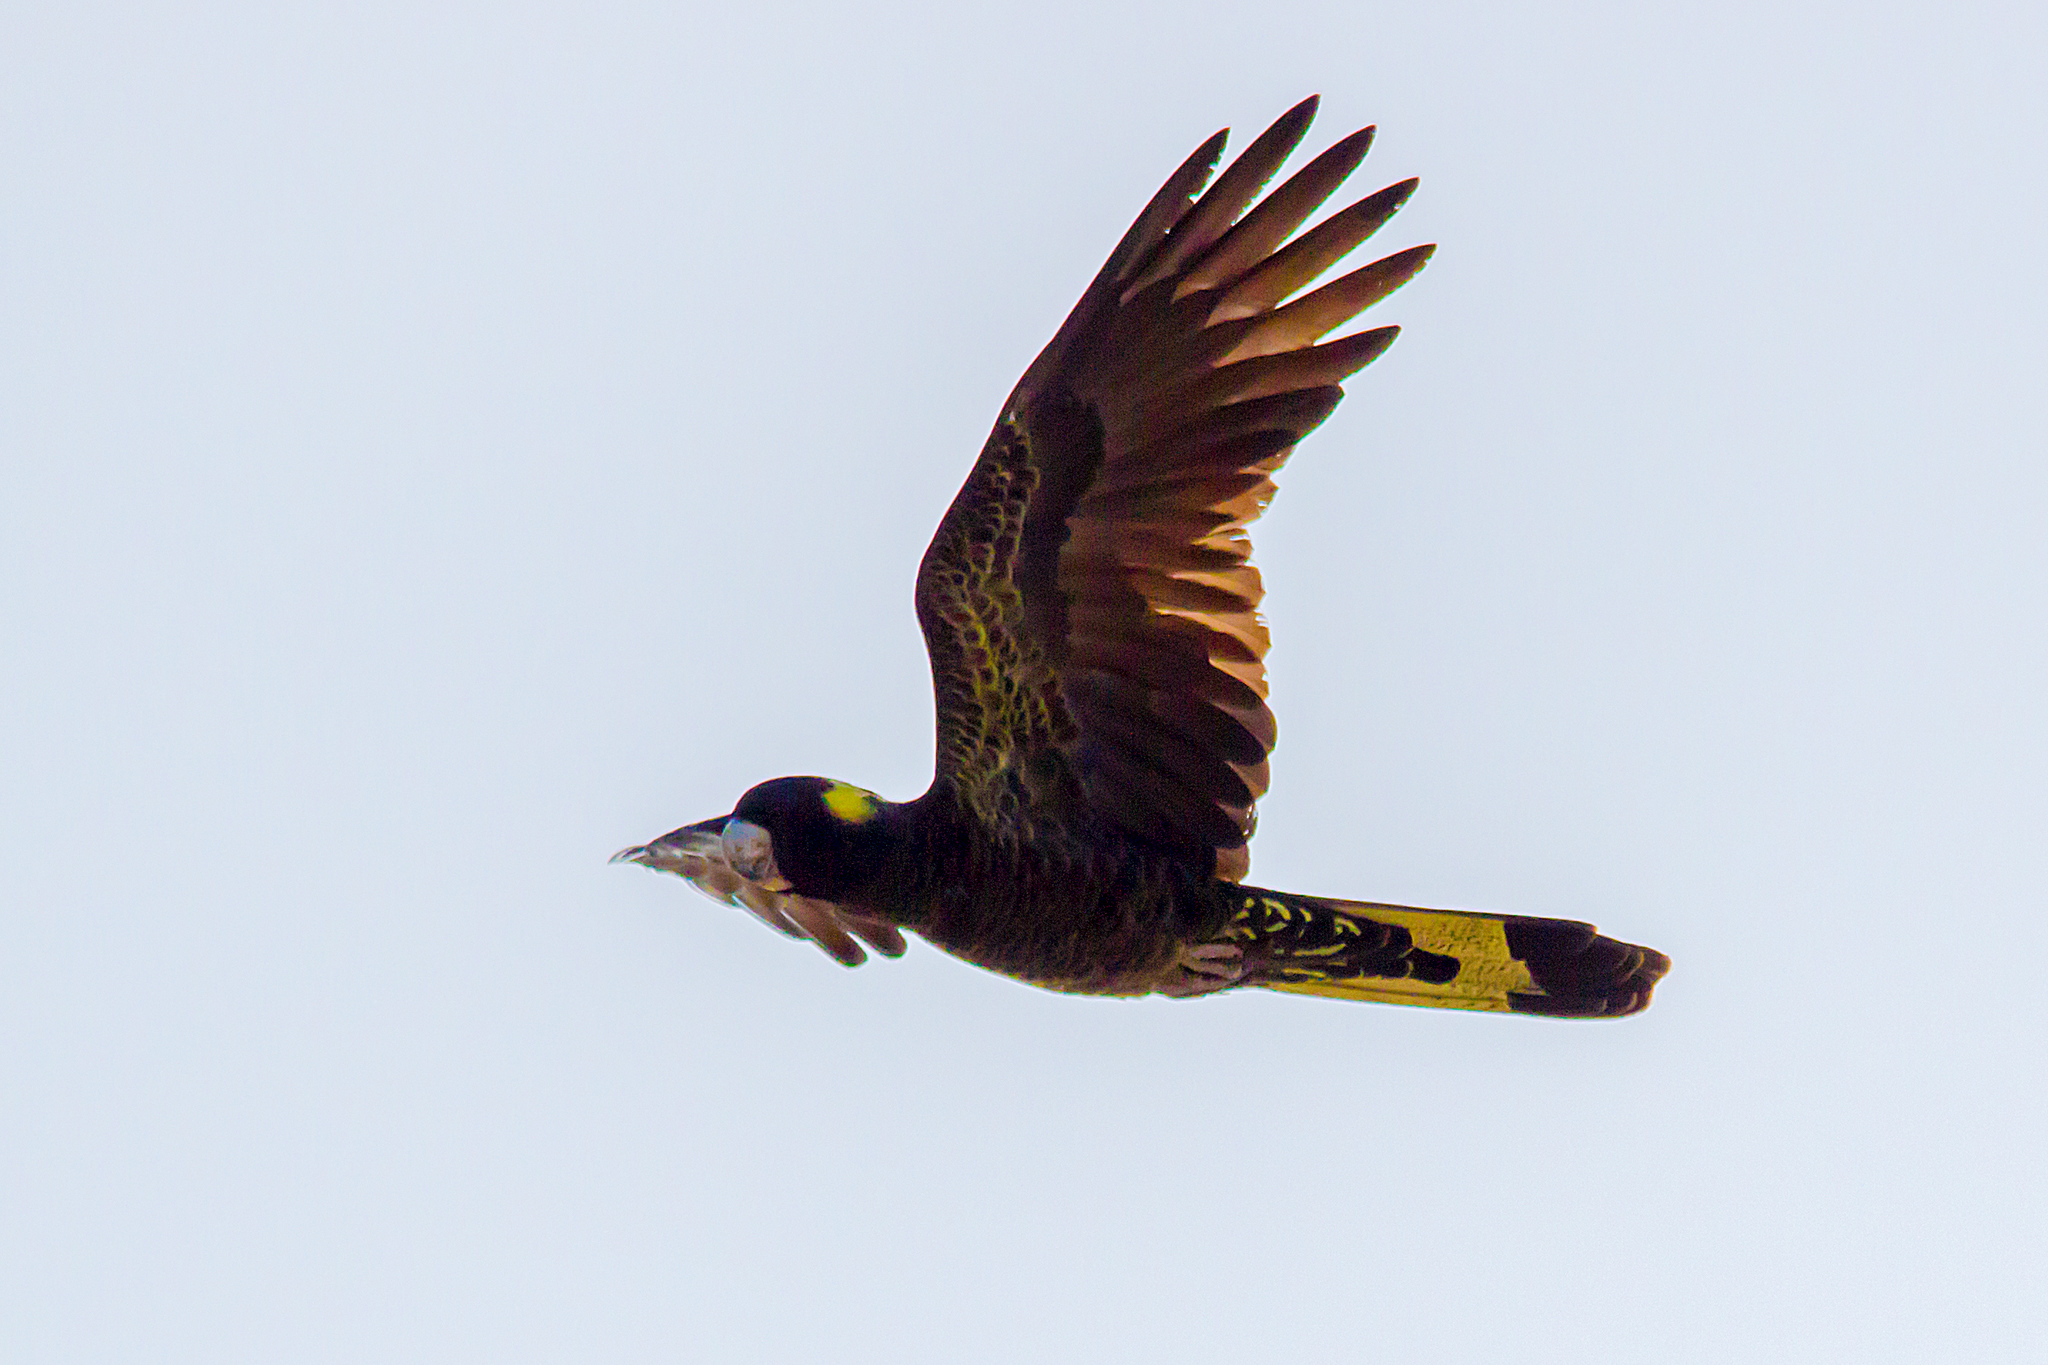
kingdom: Animalia
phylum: Chordata
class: Aves
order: Psittaciformes
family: Cacatuidae
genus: Zanda
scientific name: Zanda funerea
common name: Yellow-tailed black-cockatoo
